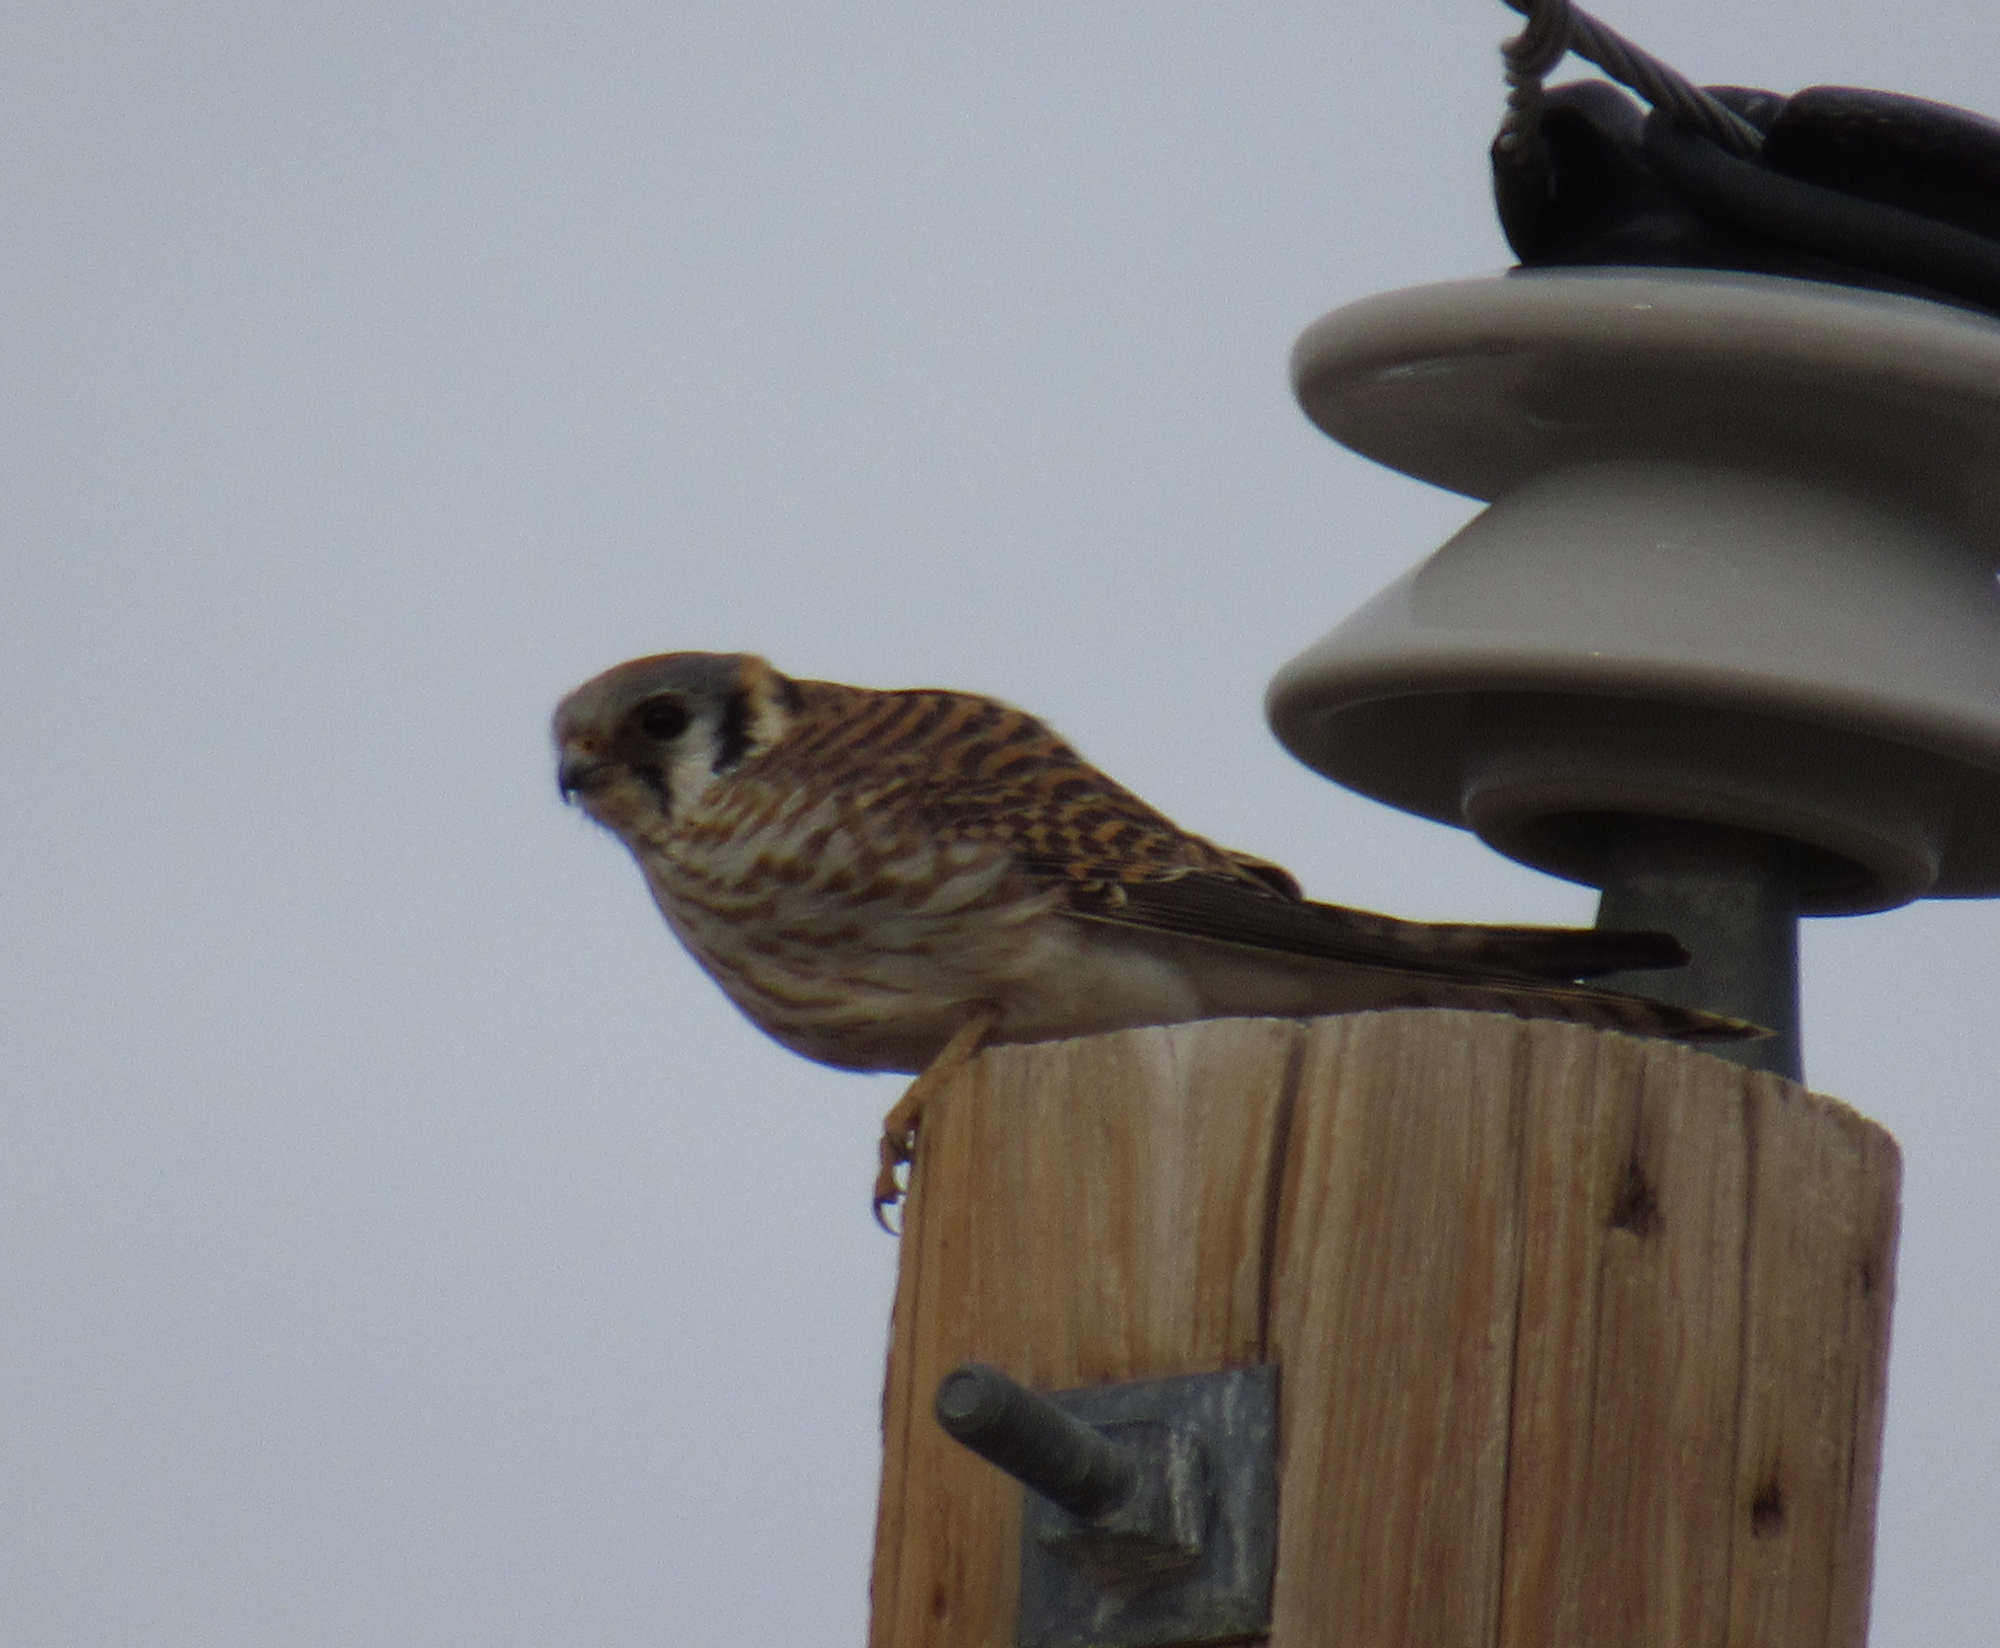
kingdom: Animalia
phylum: Chordata
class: Aves
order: Falconiformes
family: Falconidae
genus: Falco
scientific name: Falco sparverius
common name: American kestrel
